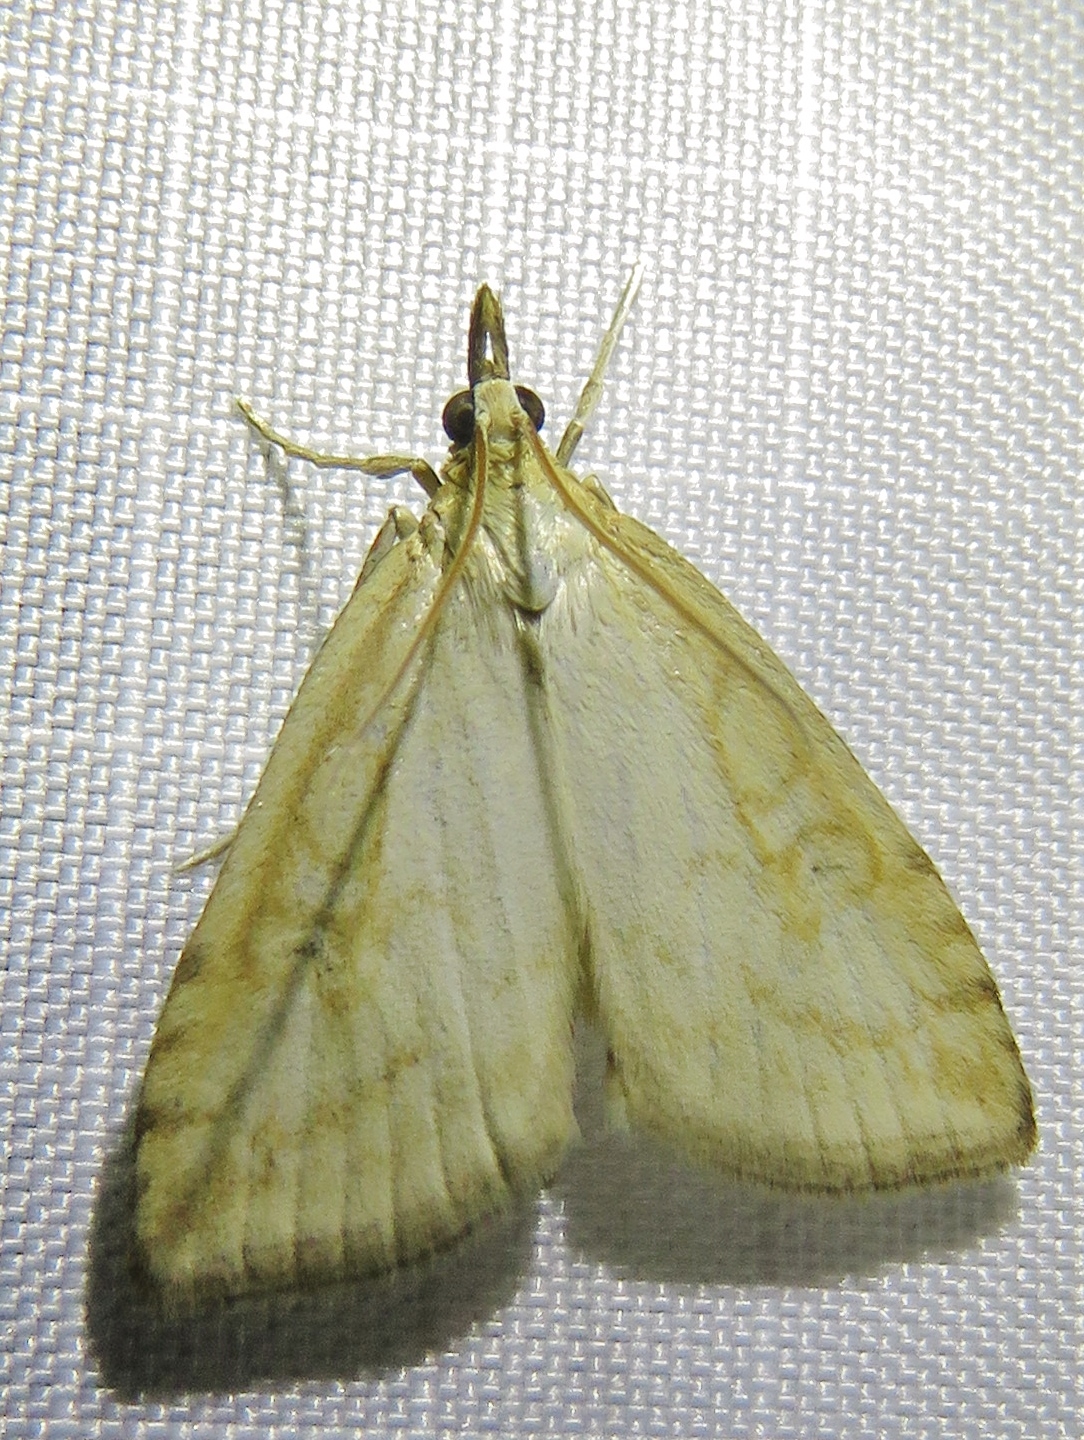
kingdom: Animalia
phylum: Arthropoda
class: Insecta
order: Lepidoptera
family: Crambidae
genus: Udea
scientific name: Udea lutealis
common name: Pale straw pearl
